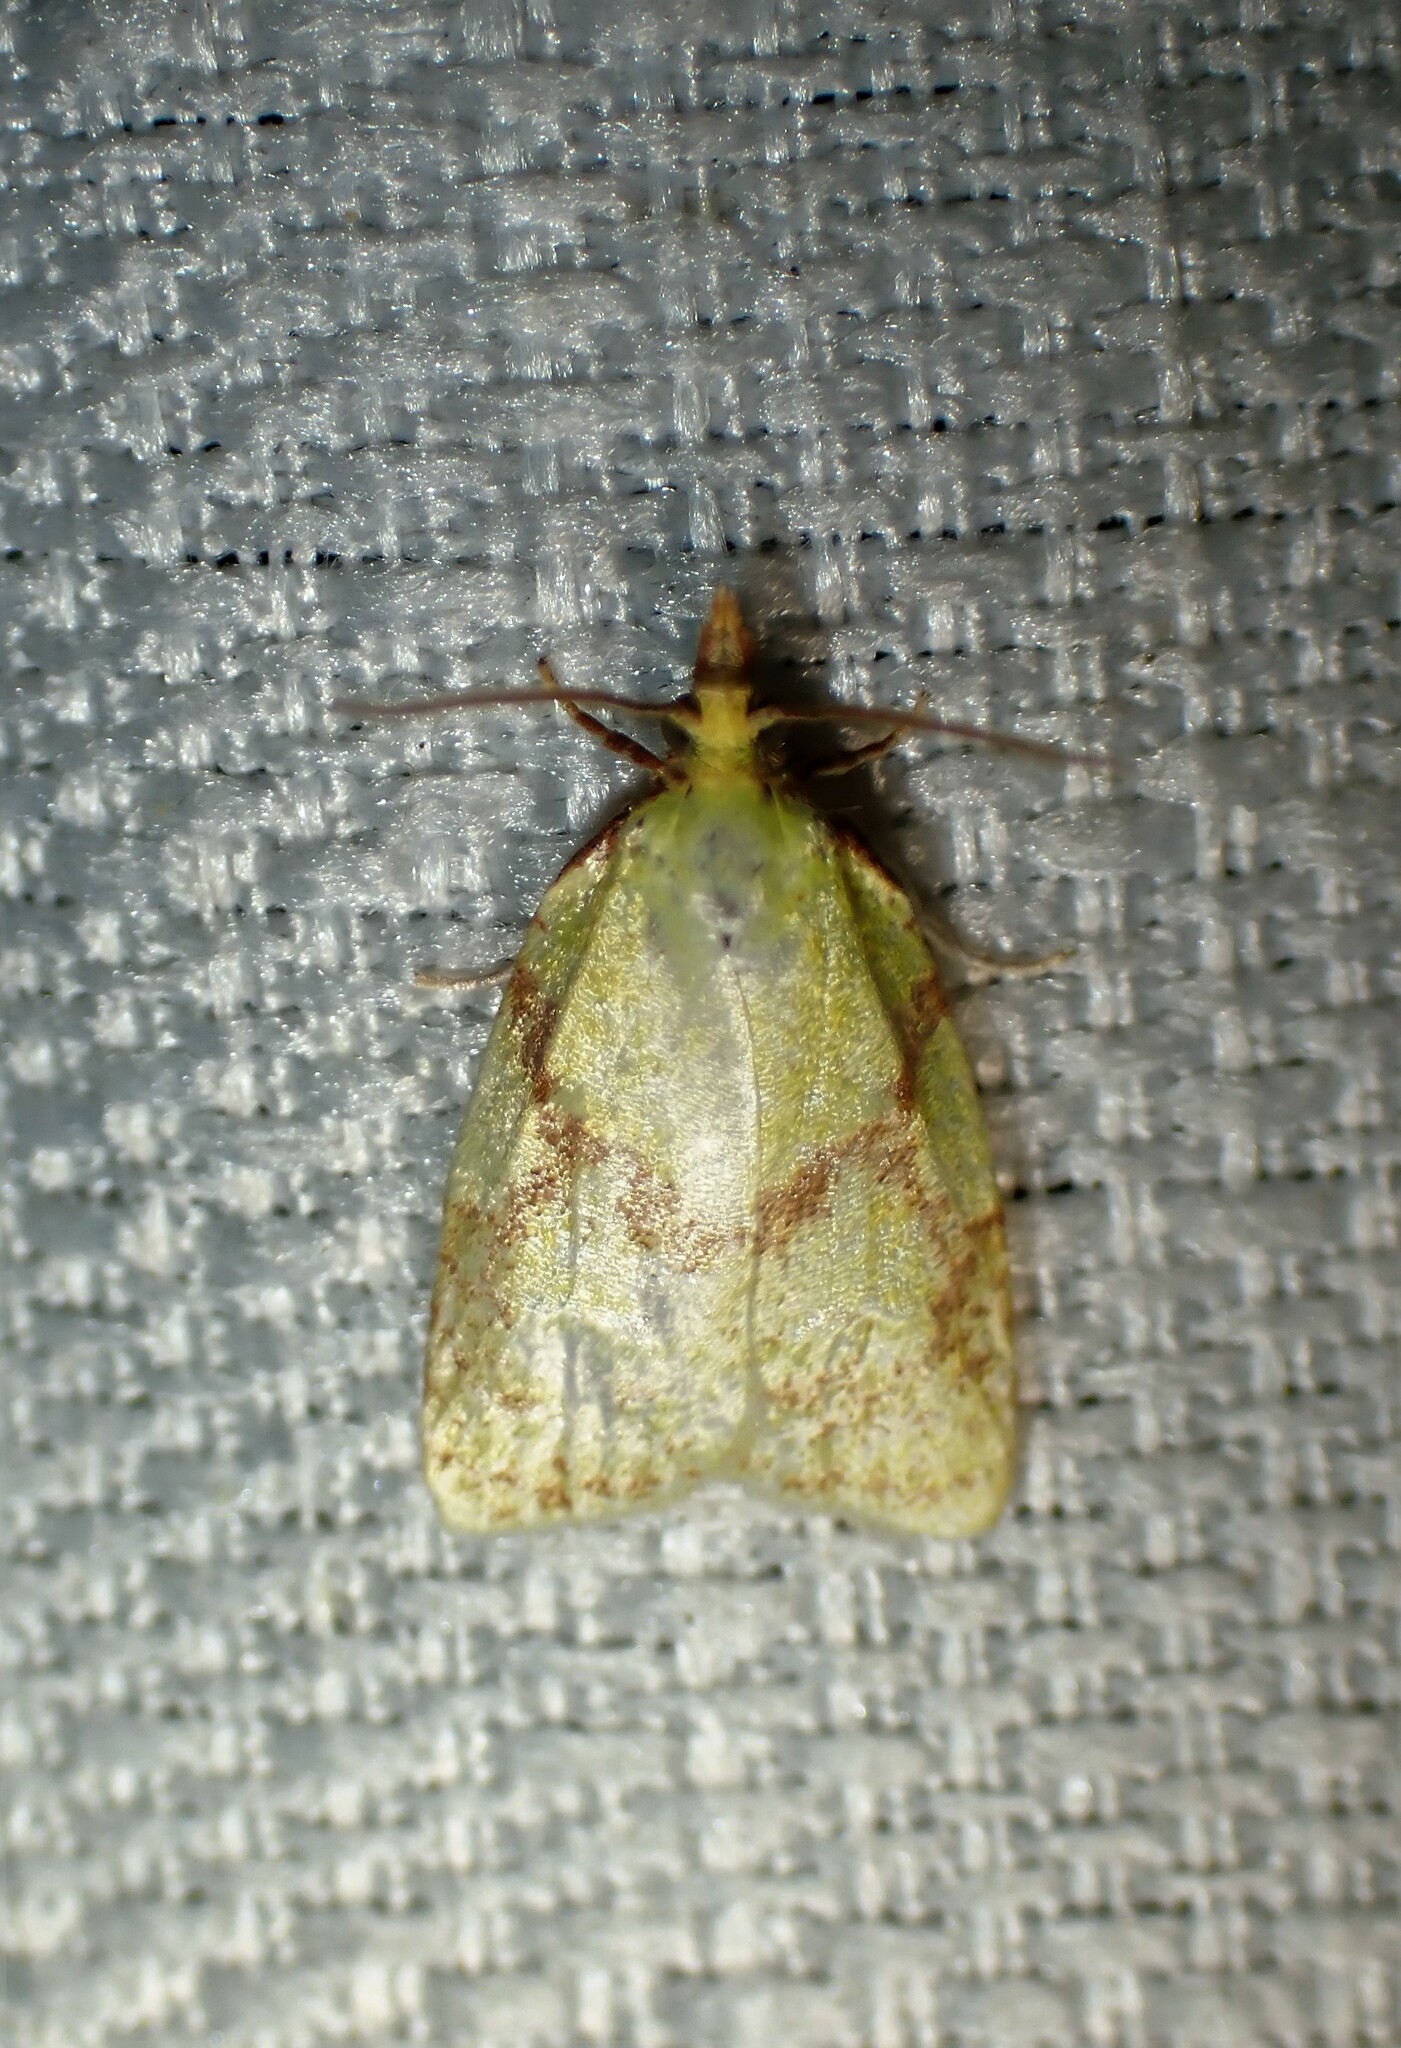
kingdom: Animalia
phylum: Arthropoda
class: Insecta
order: Lepidoptera
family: Tortricidae
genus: Cenopis
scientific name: Cenopis pettitana
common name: Maple-basswood leafroller moth
